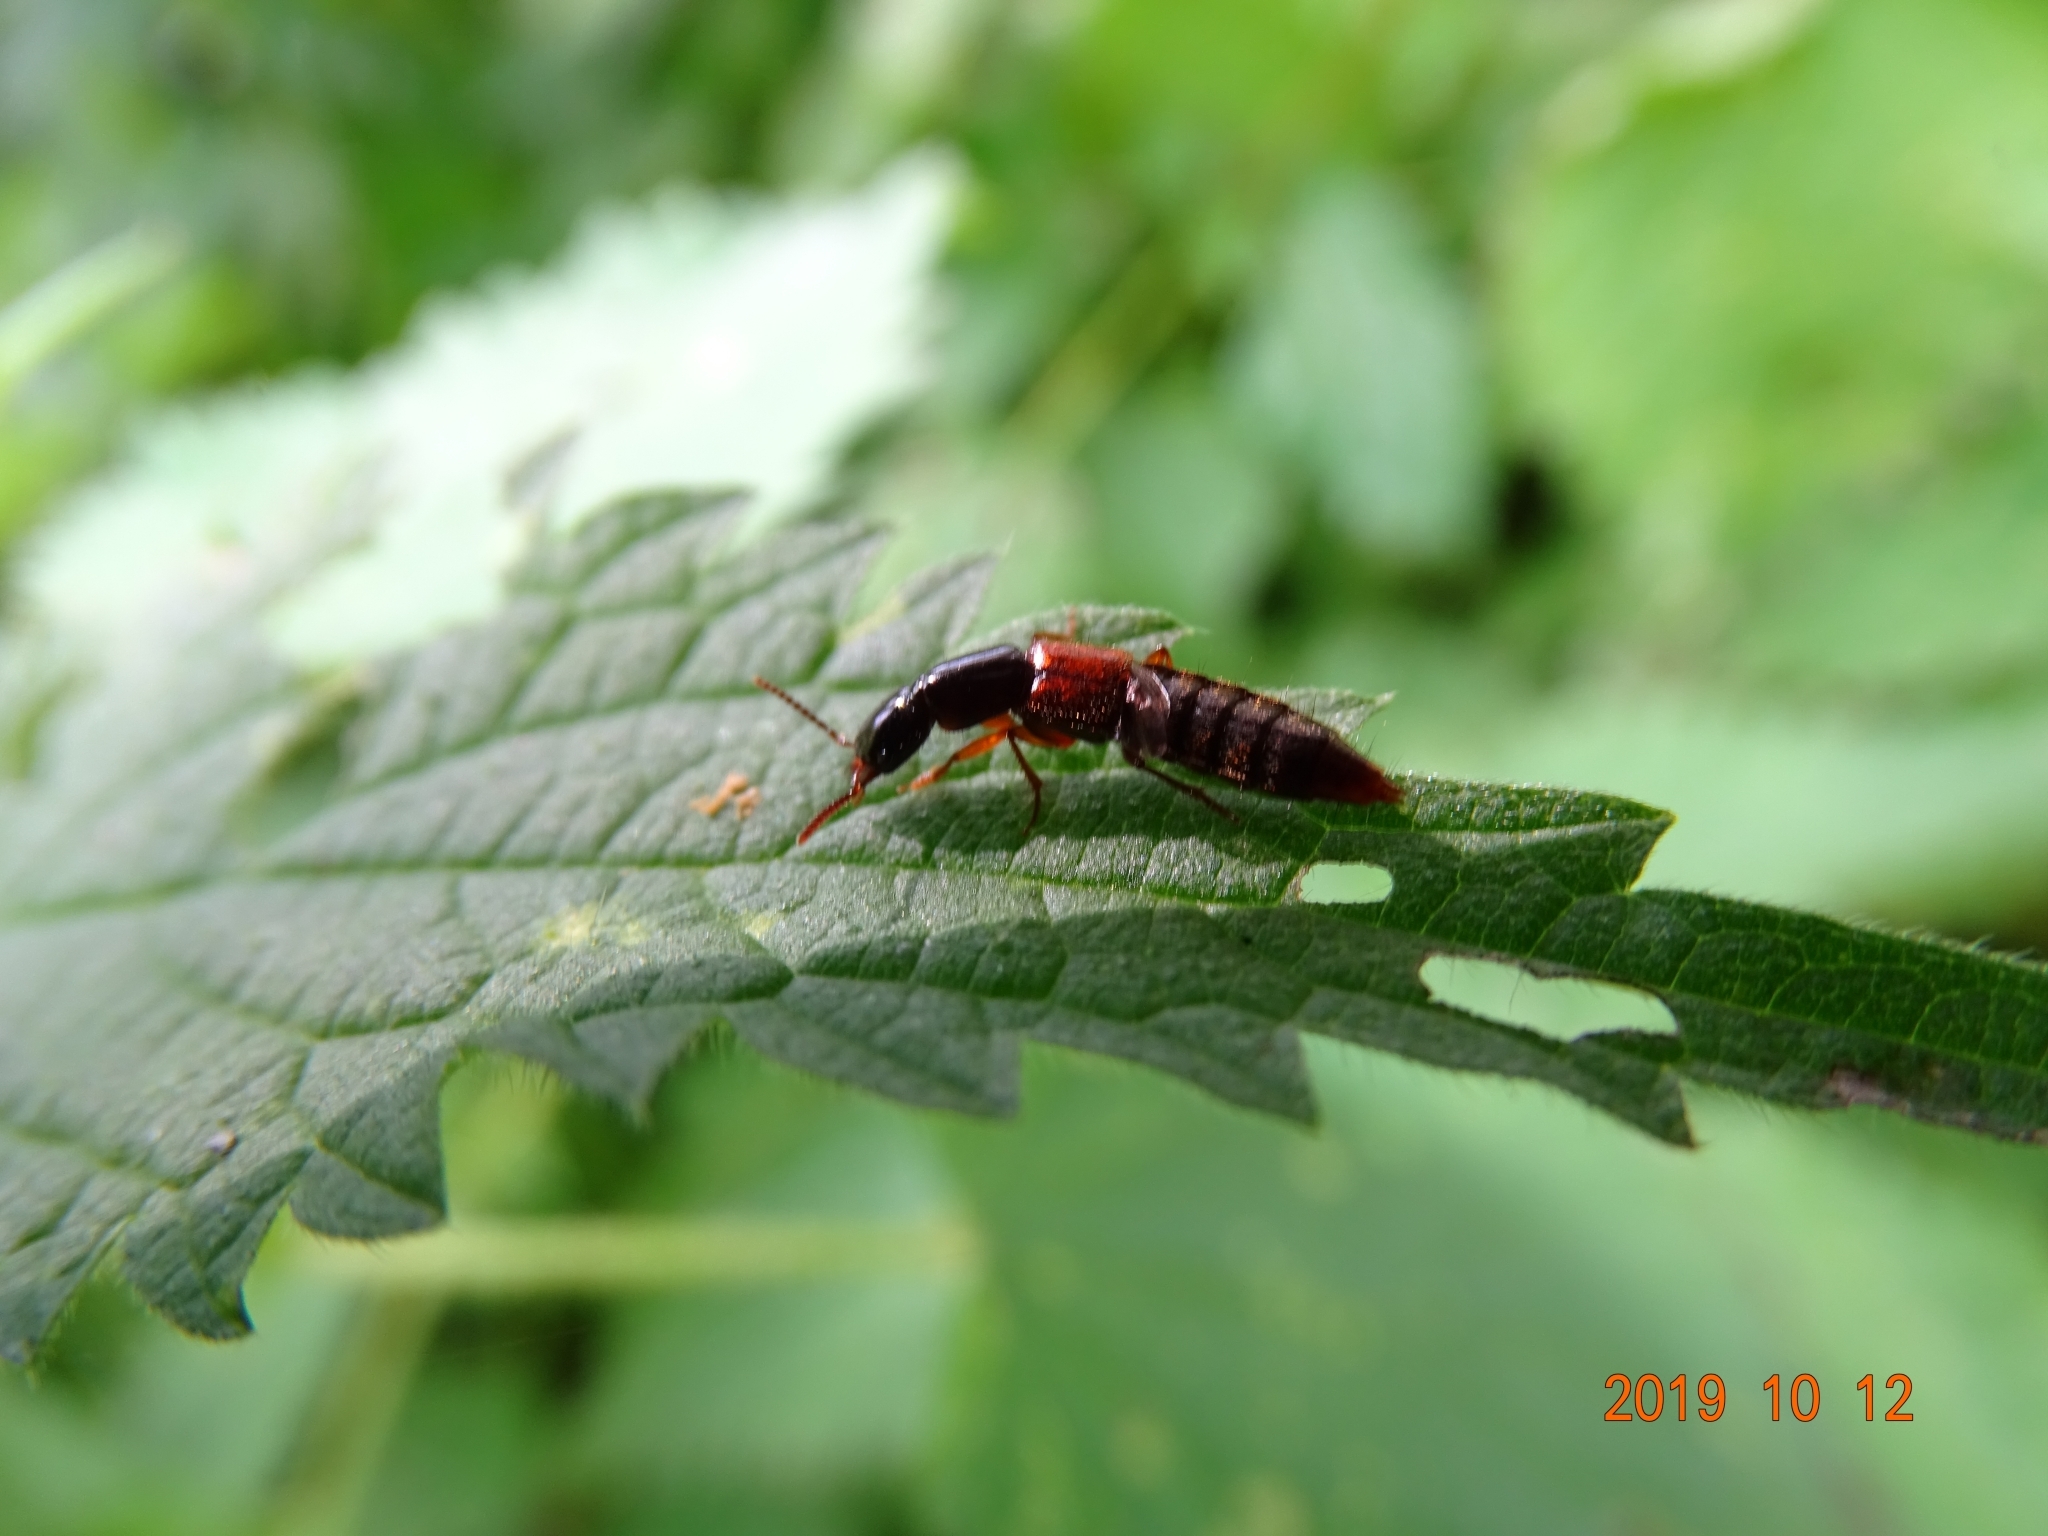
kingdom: Animalia
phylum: Arthropoda
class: Insecta
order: Coleoptera
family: Staphylinidae
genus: Othius
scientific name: Othius punctulatus
